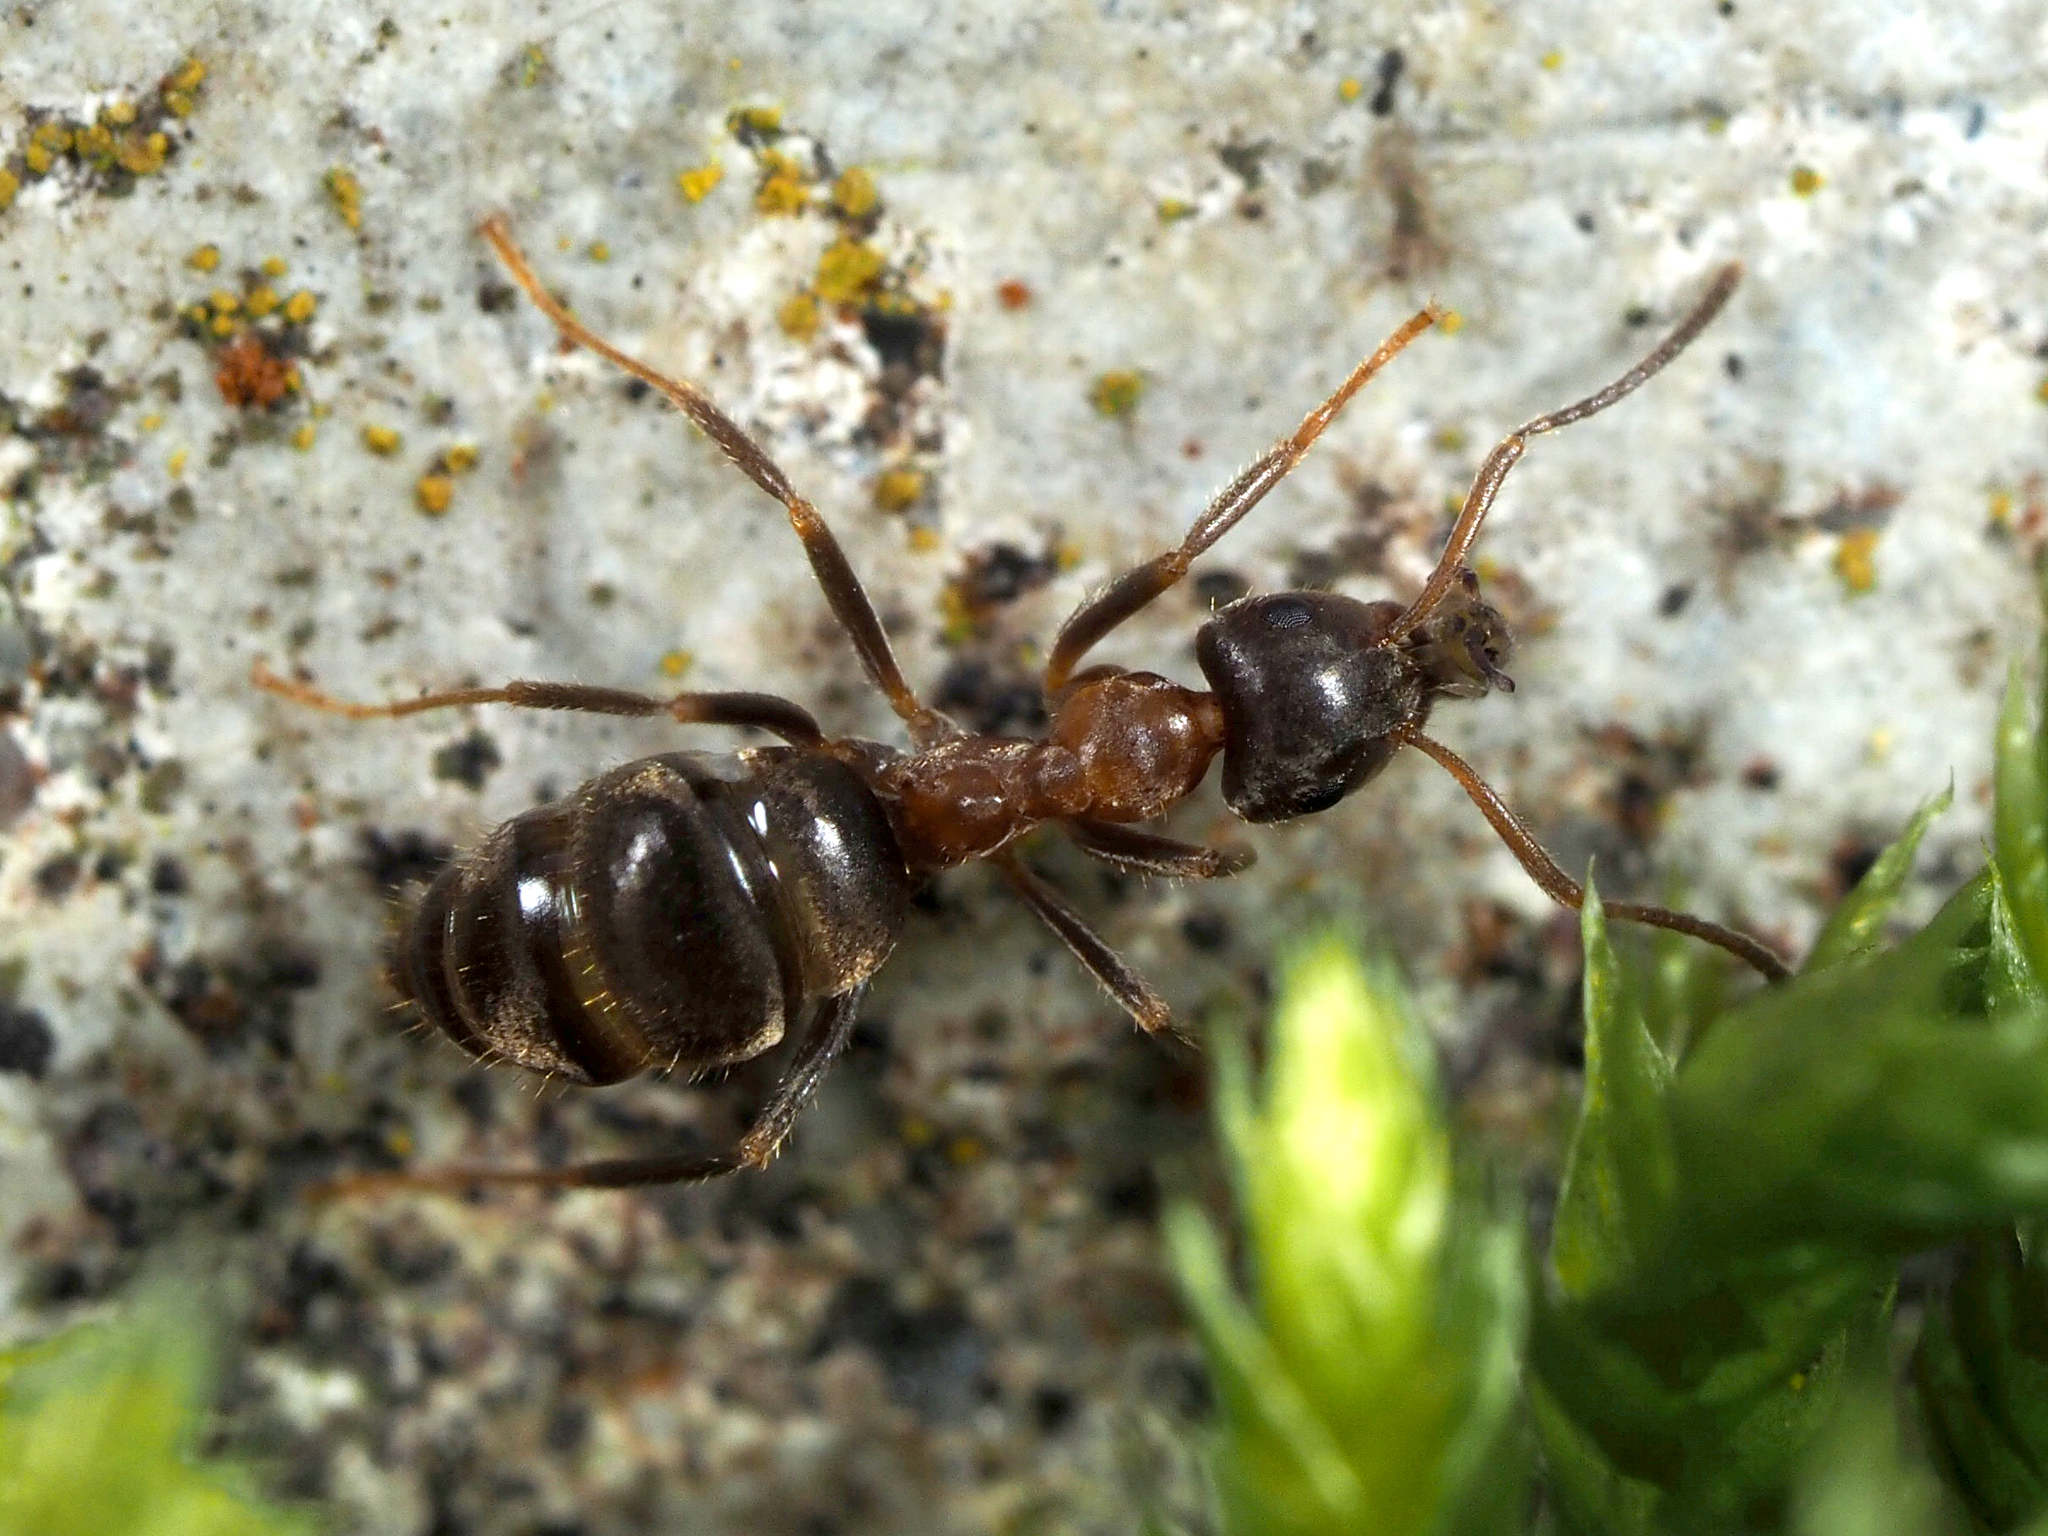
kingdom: Animalia
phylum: Arthropoda
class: Insecta
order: Hymenoptera
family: Formicidae
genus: Lasius
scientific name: Lasius emarginatus
